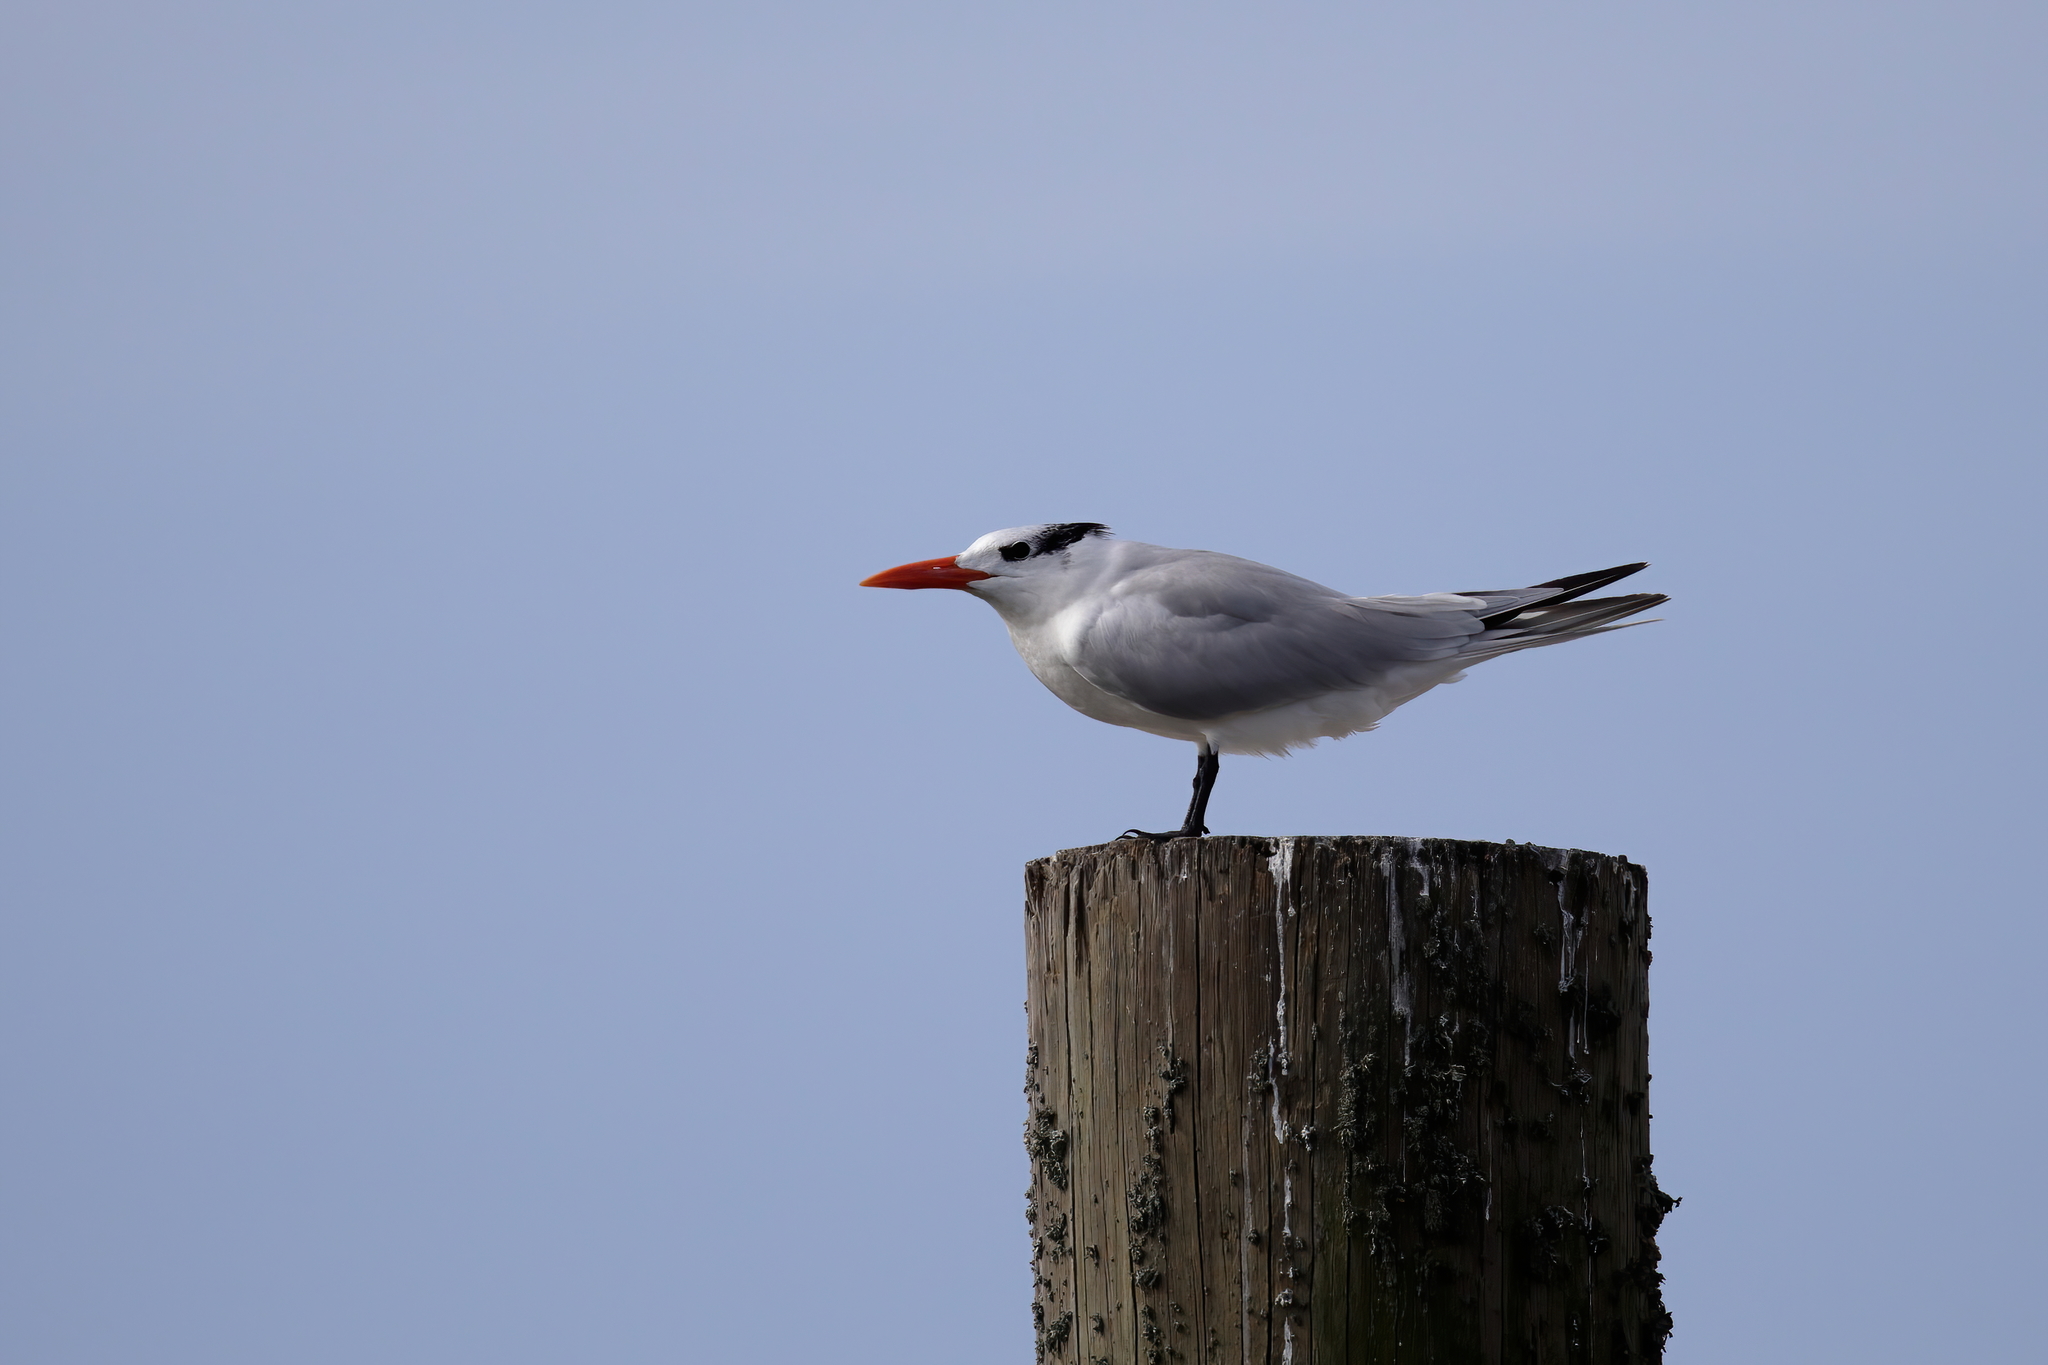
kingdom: Animalia
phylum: Chordata
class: Aves
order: Charadriiformes
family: Laridae
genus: Thalasseus
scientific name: Thalasseus maximus
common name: Royal tern
